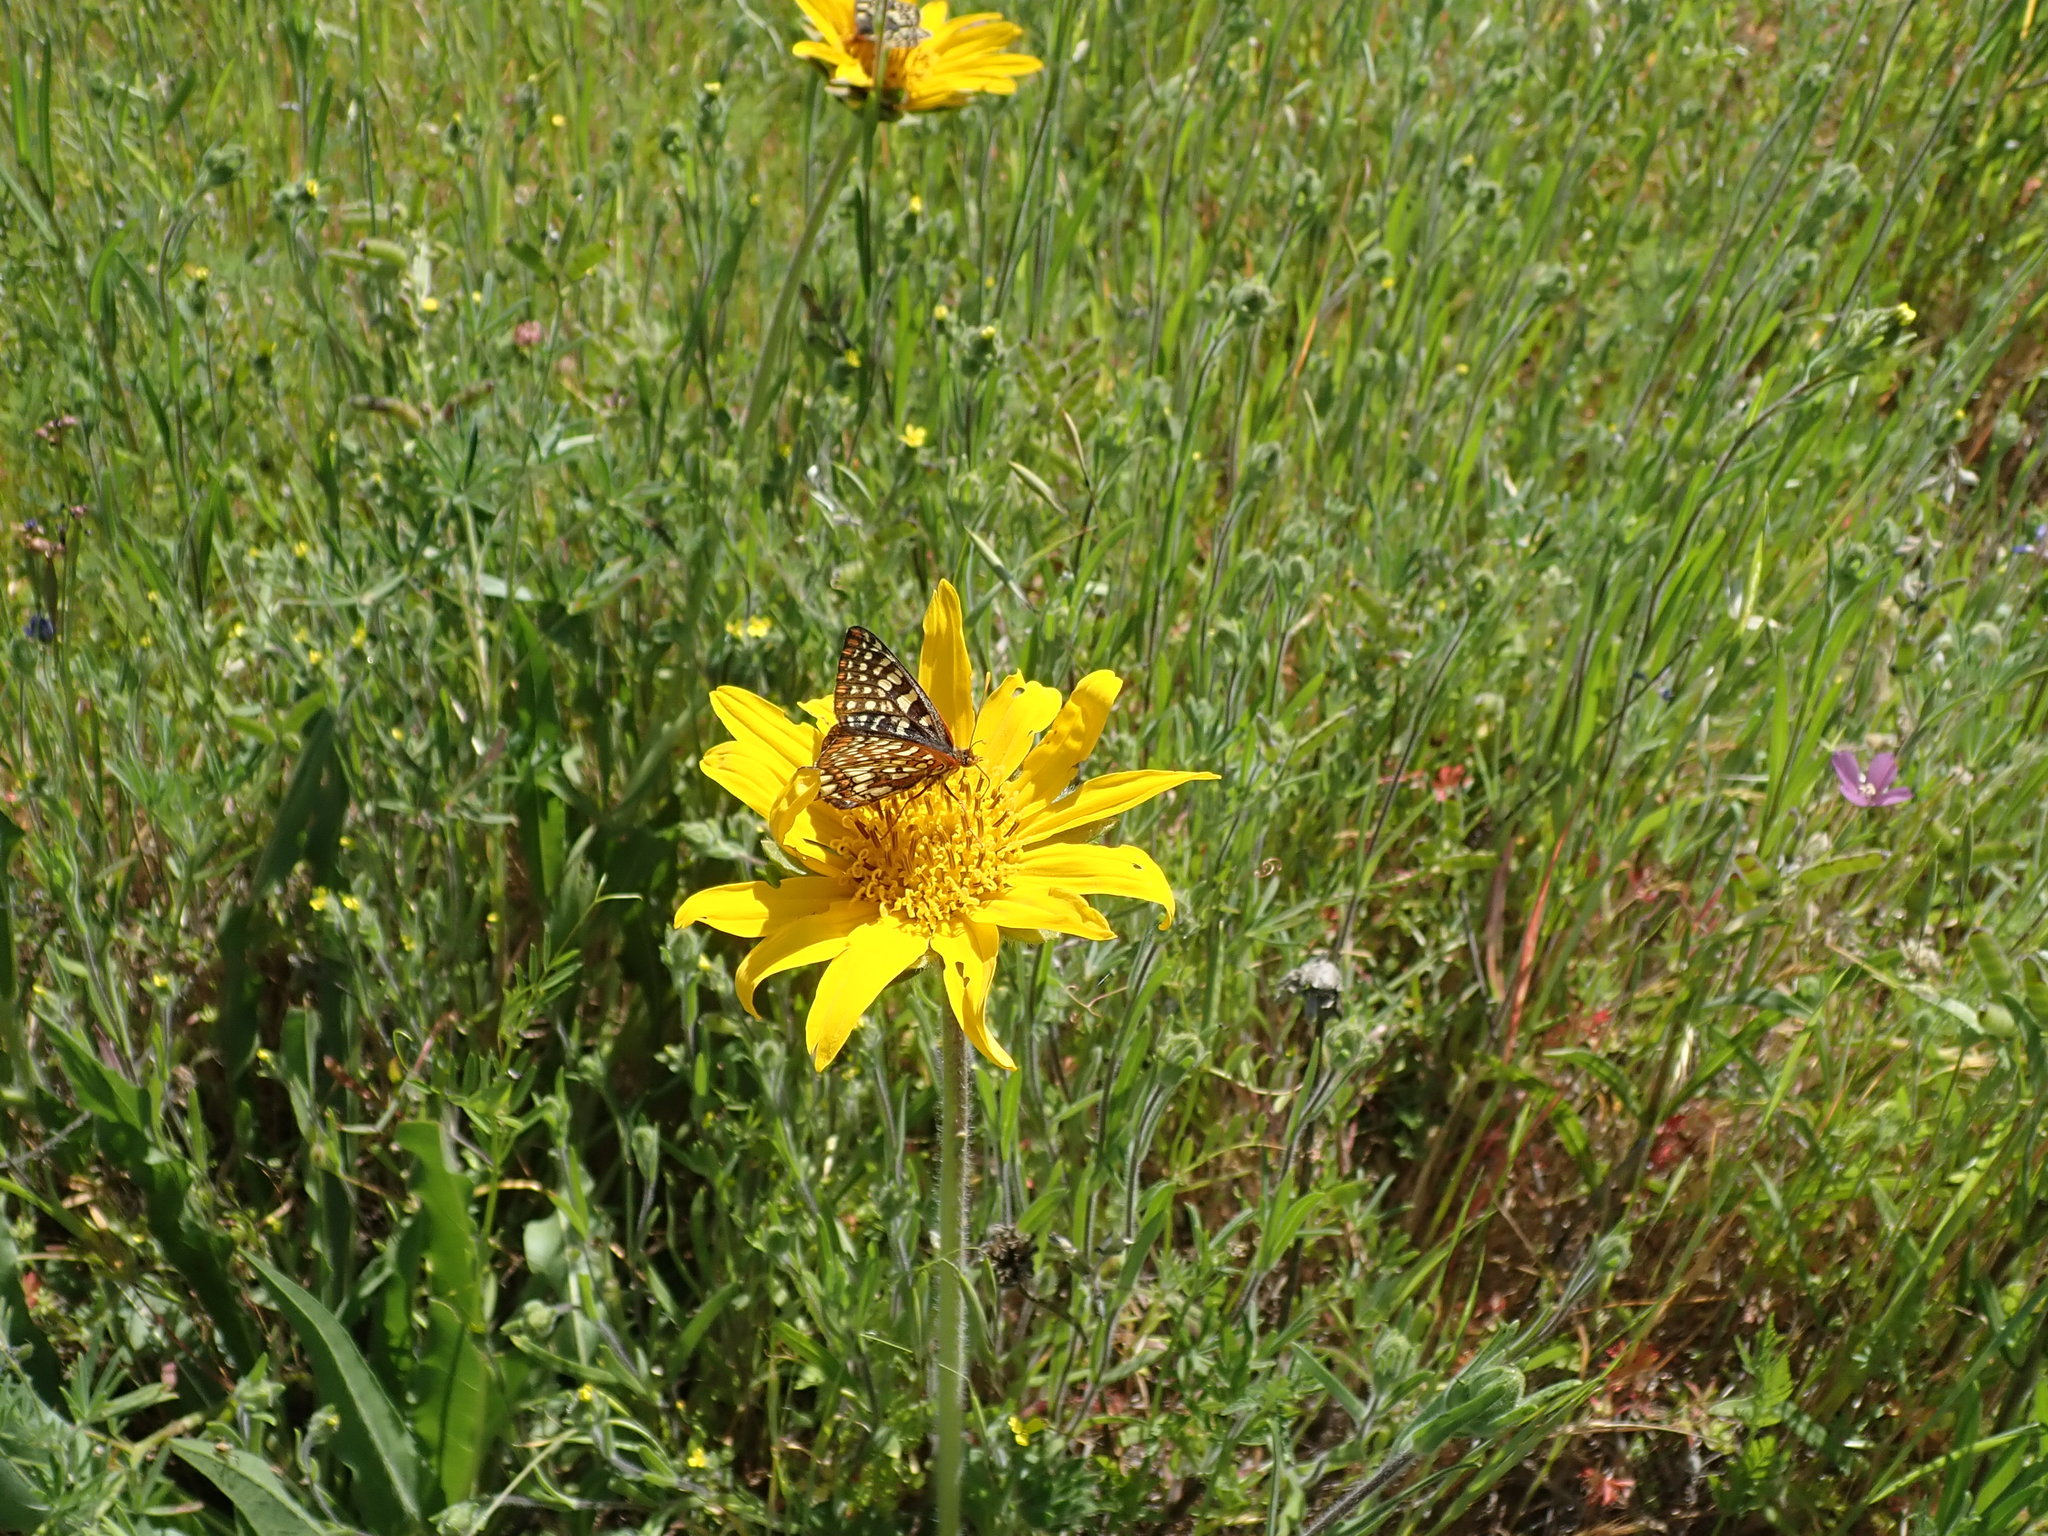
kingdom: Animalia
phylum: Arthropoda
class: Insecta
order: Lepidoptera
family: Nymphalidae
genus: Occidryas
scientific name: Occidryas chalcedona
